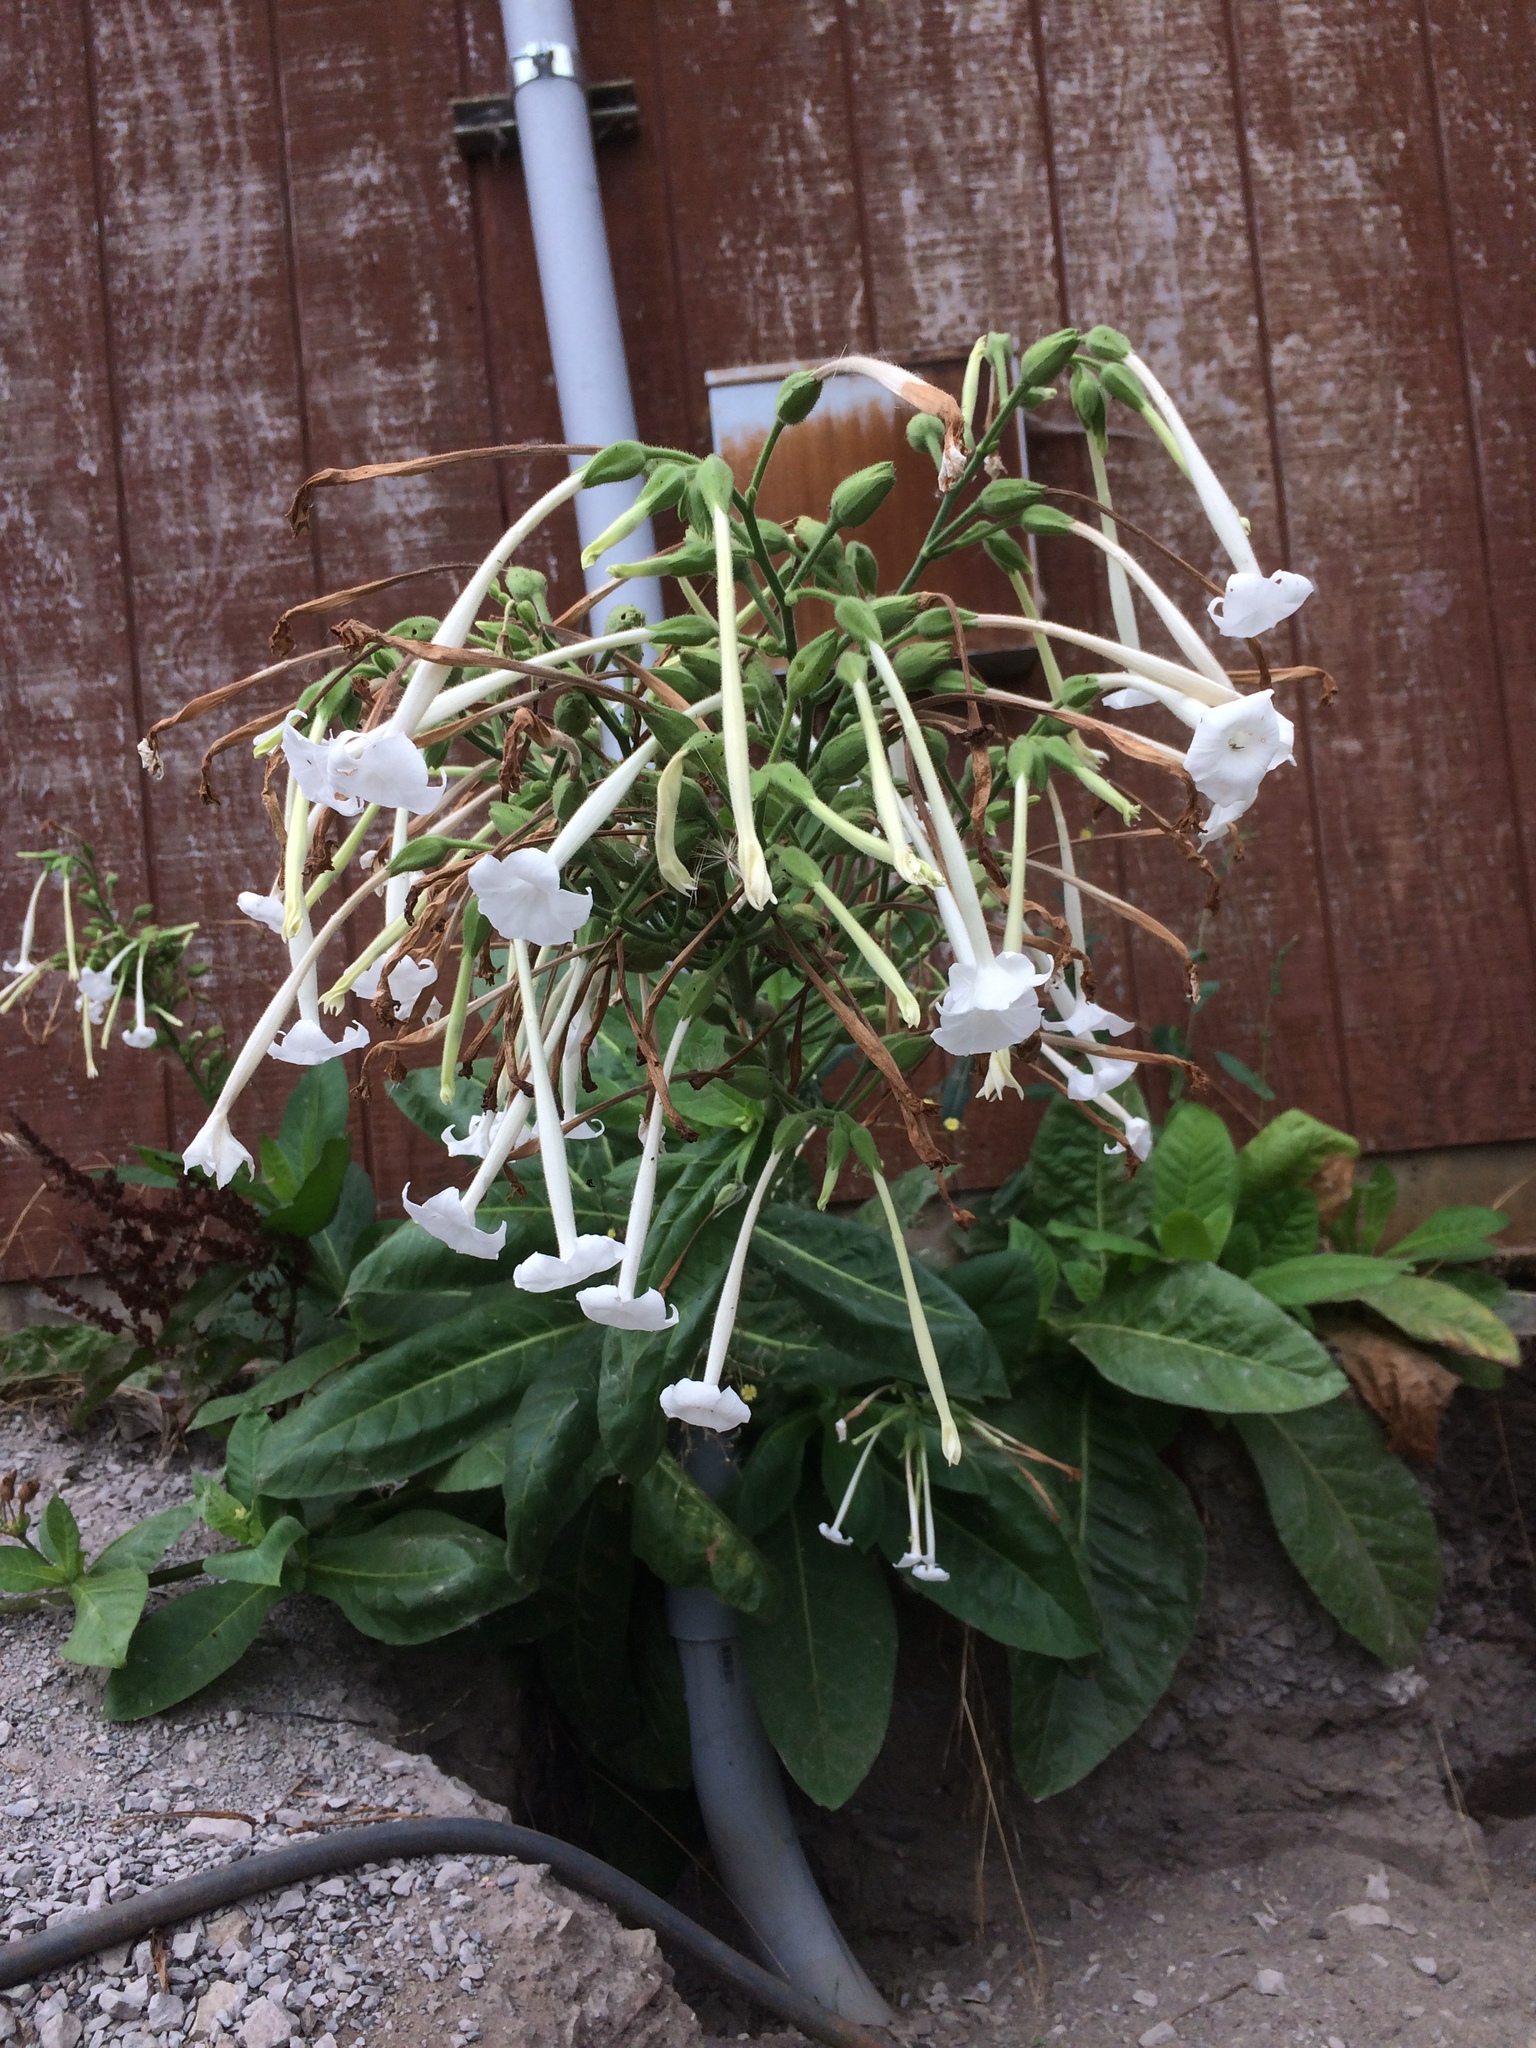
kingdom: Plantae
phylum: Tracheophyta
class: Magnoliopsida
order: Solanales
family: Solanaceae
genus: Nicotiana
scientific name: Nicotiana sylvestris
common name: Flowering tobacco
